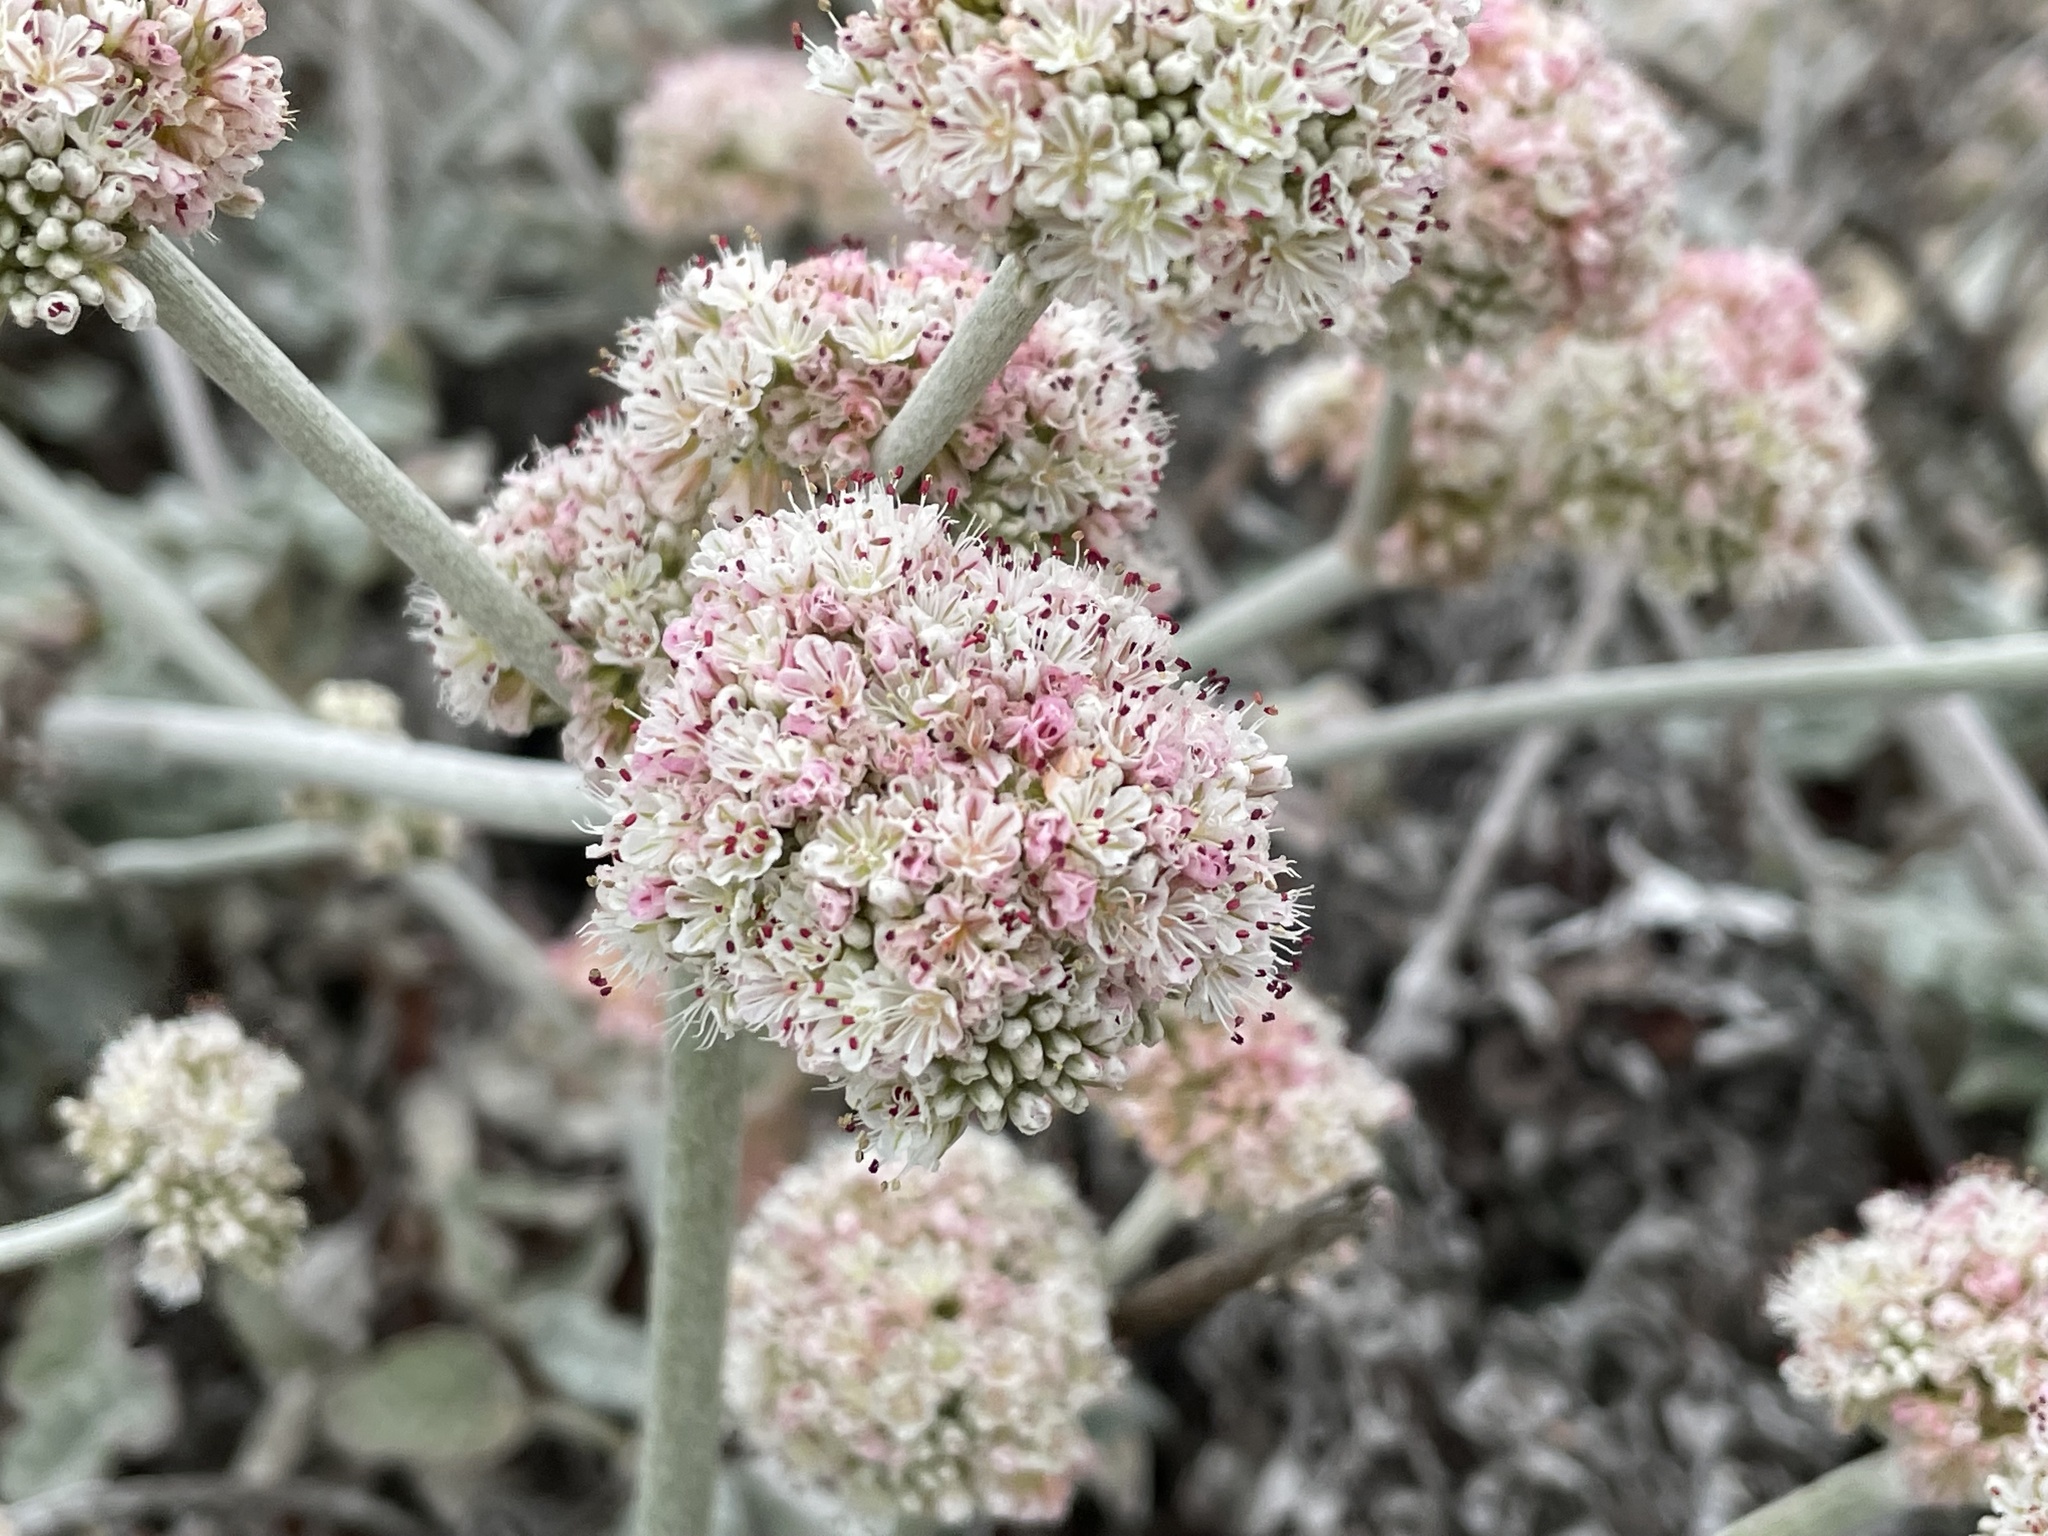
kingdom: Plantae
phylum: Tracheophyta
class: Magnoliopsida
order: Caryophyllales
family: Polygonaceae
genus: Eriogonum
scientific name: Eriogonum latifolium
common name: Seaside wild buckwheat
